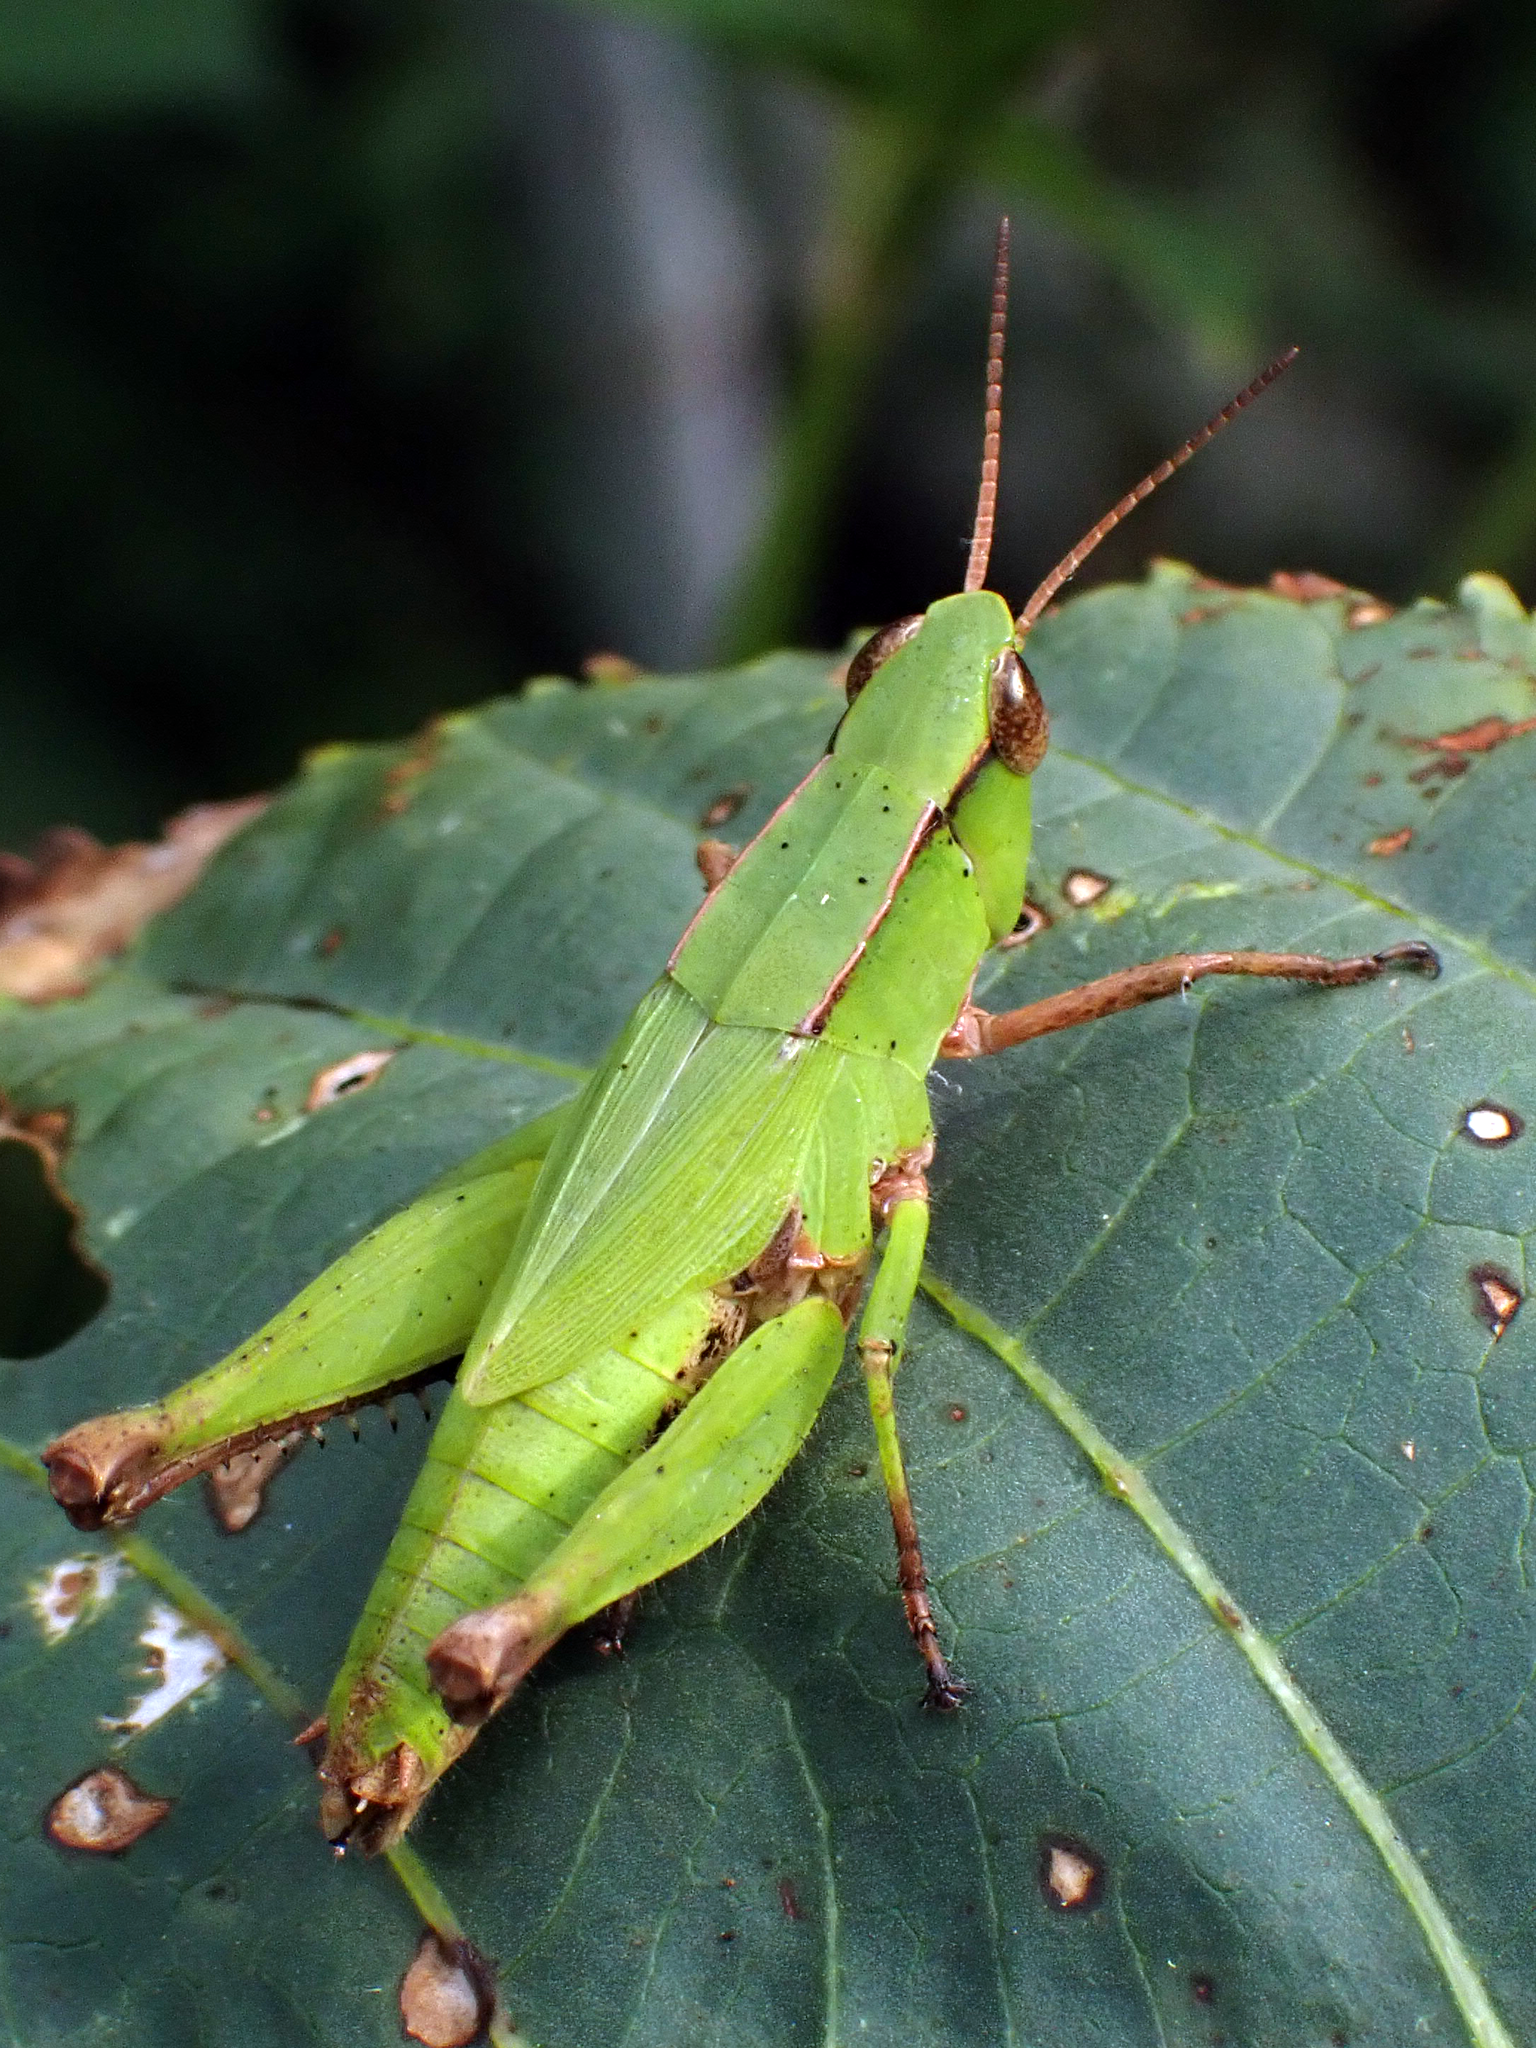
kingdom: Animalia
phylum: Arthropoda
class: Insecta
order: Orthoptera
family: Acrididae
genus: Dichromorpha
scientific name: Dichromorpha viridis
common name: Short-winged green grasshopper
